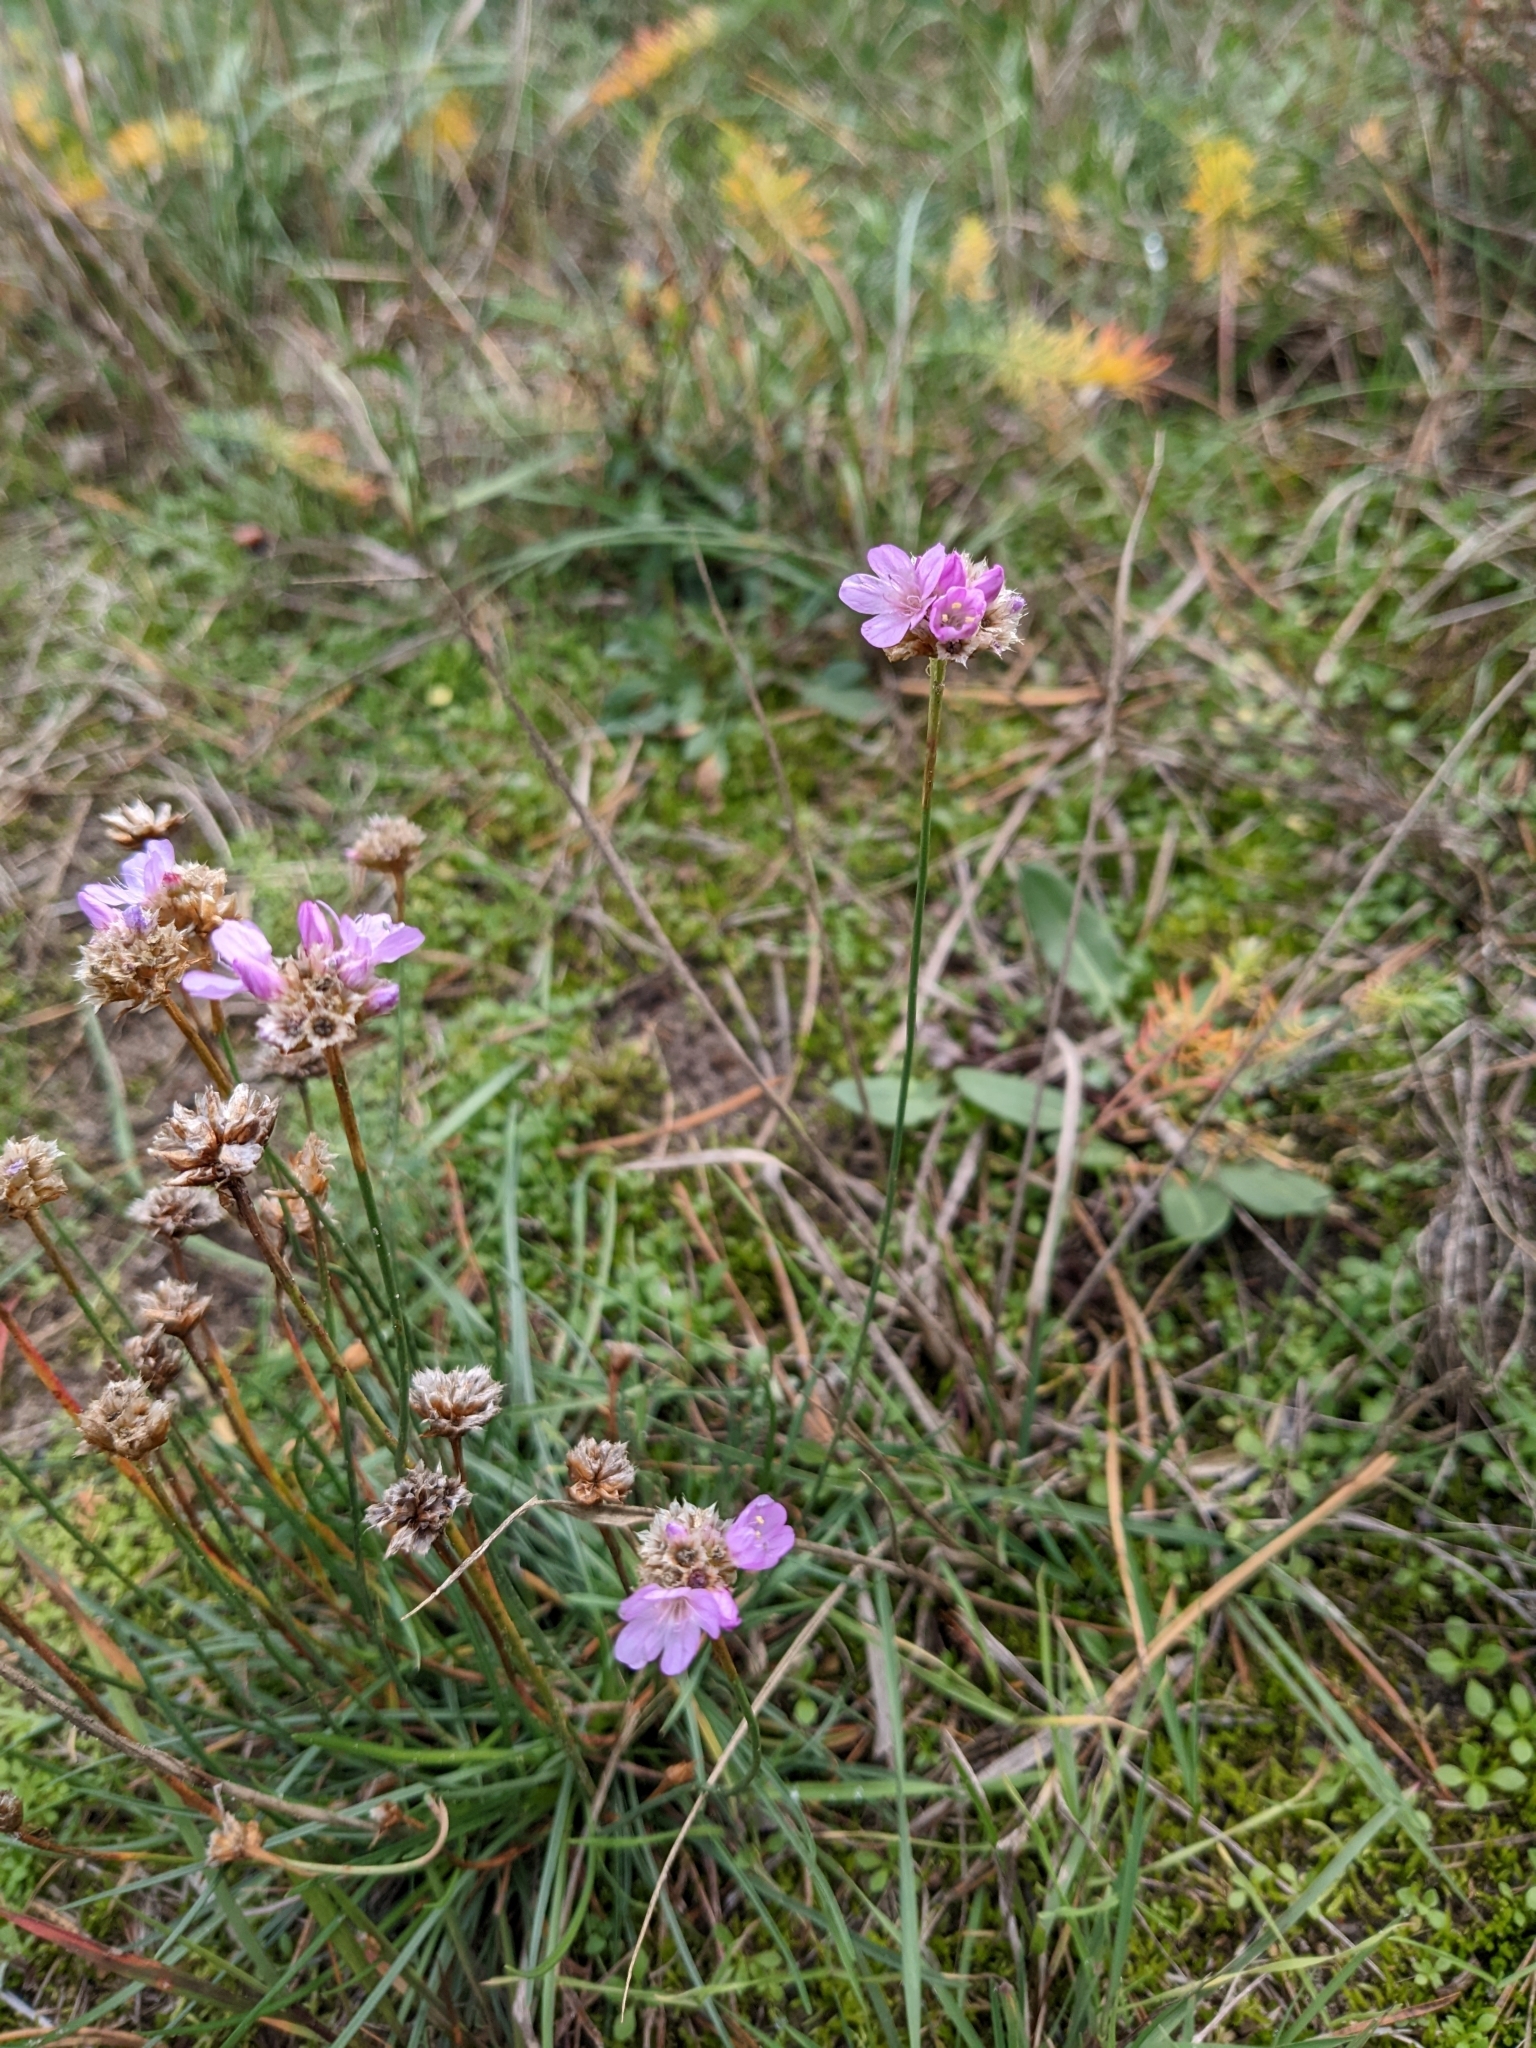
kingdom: Plantae
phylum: Tracheophyta
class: Magnoliopsida
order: Caryophyllales
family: Plumbaginaceae
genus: Armeria
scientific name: Armeria maritima
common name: Thrift
